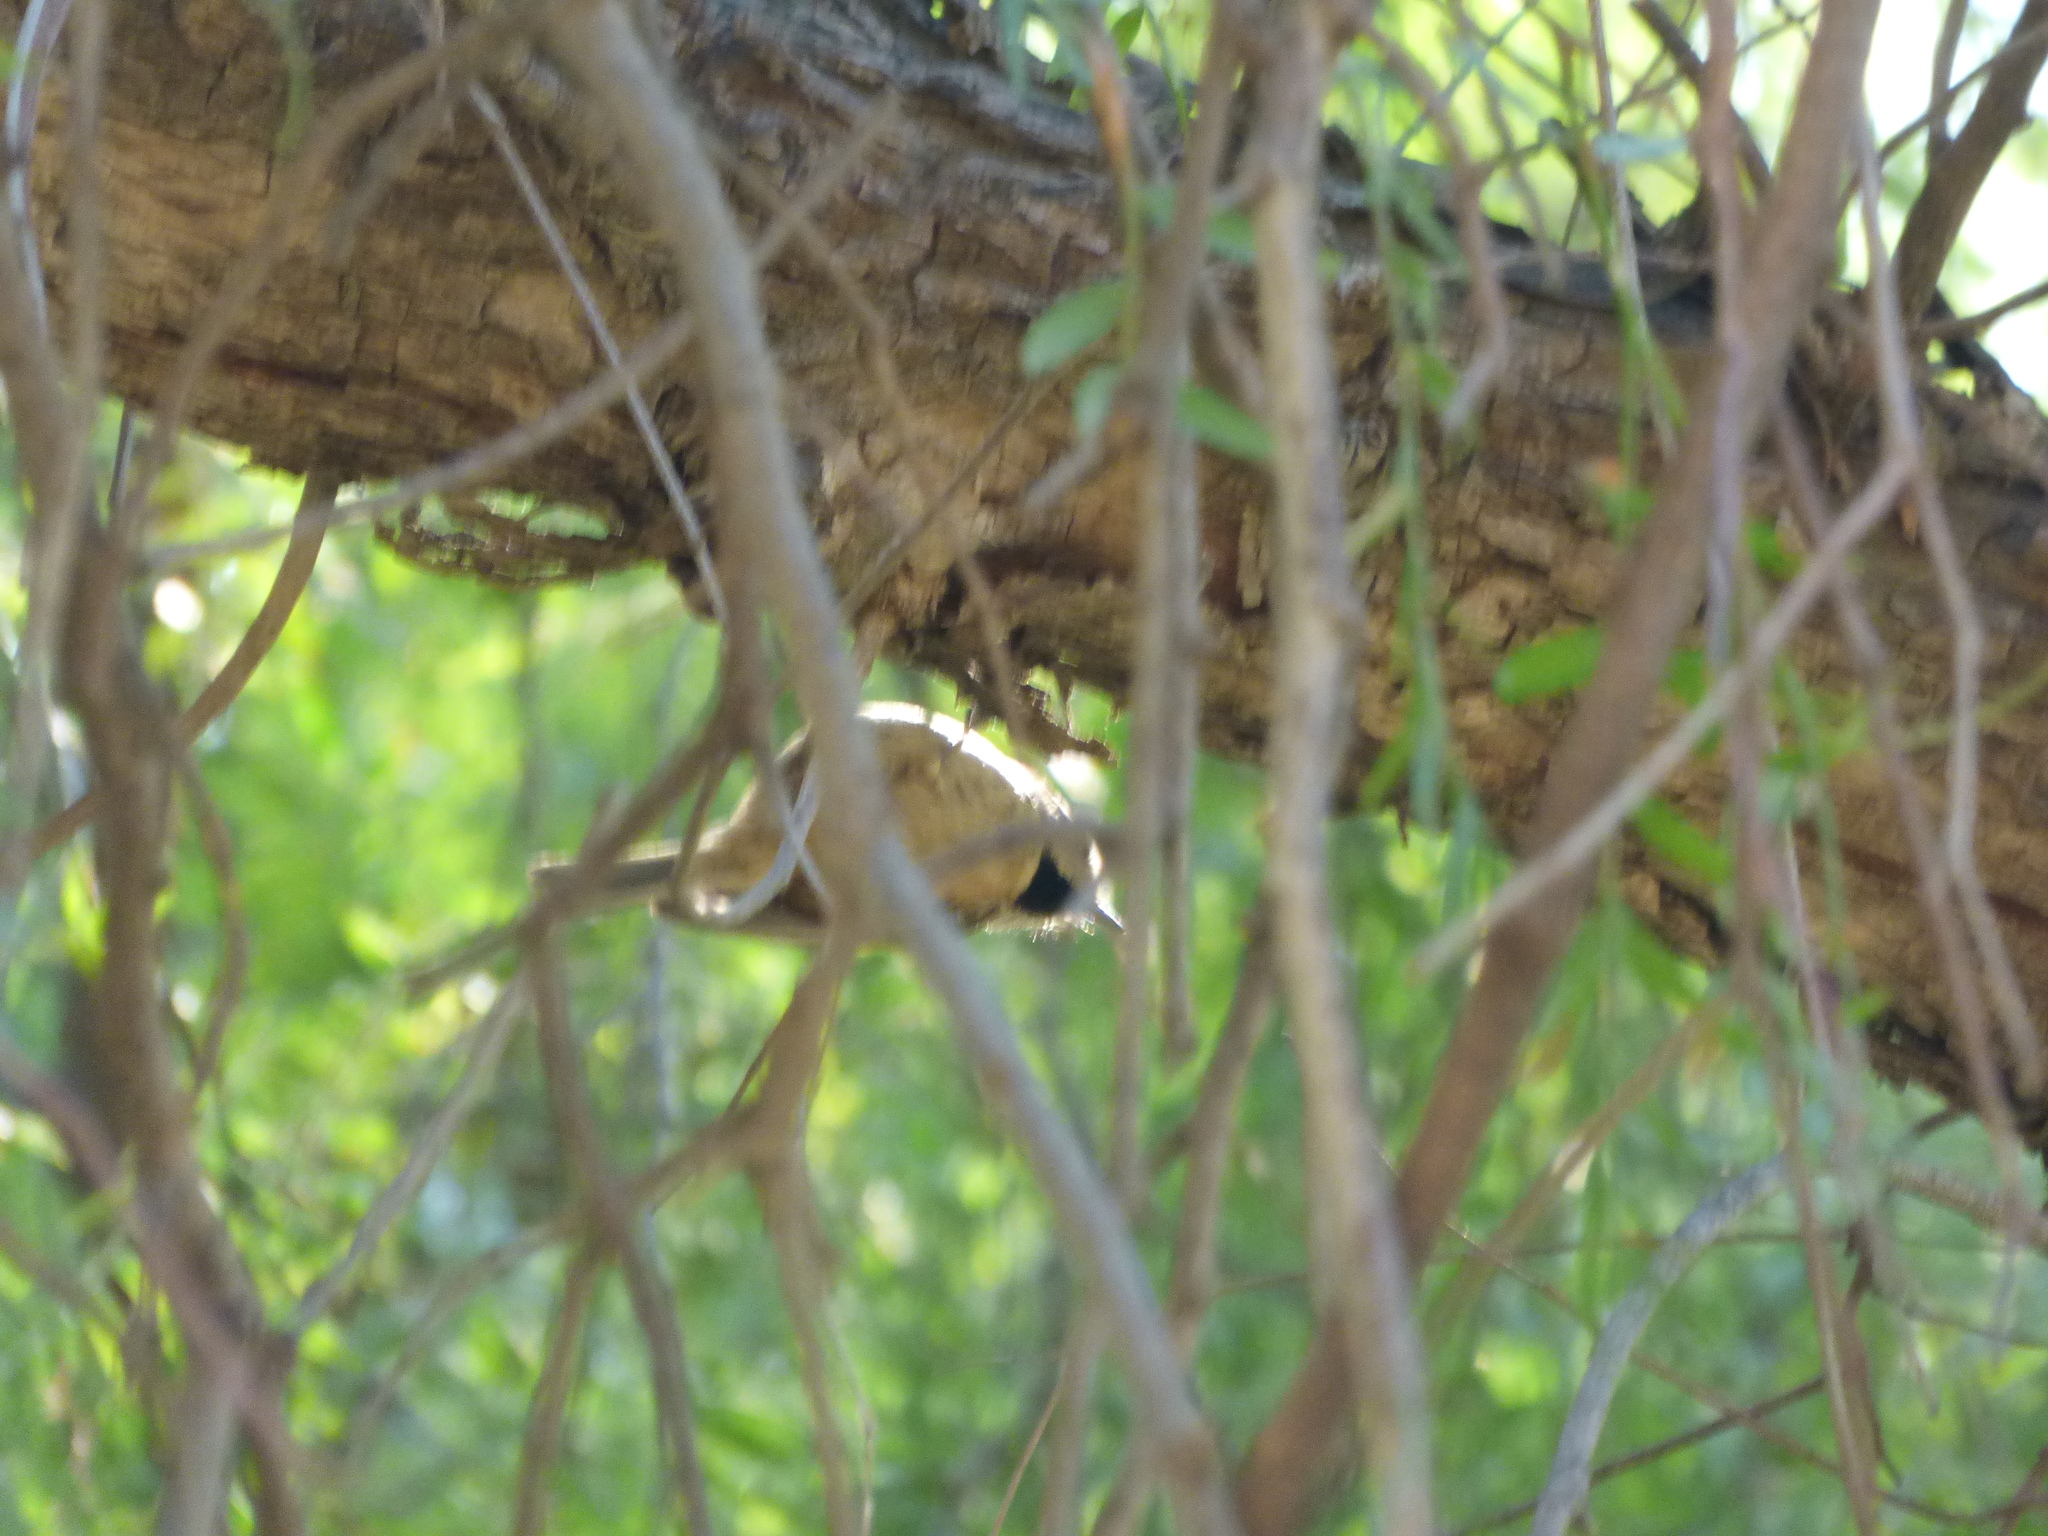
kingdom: Animalia
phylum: Chordata
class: Aves
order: Passeriformes
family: Paridae
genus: Lophophanes
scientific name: Lophophanes cristatus
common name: European crested tit
